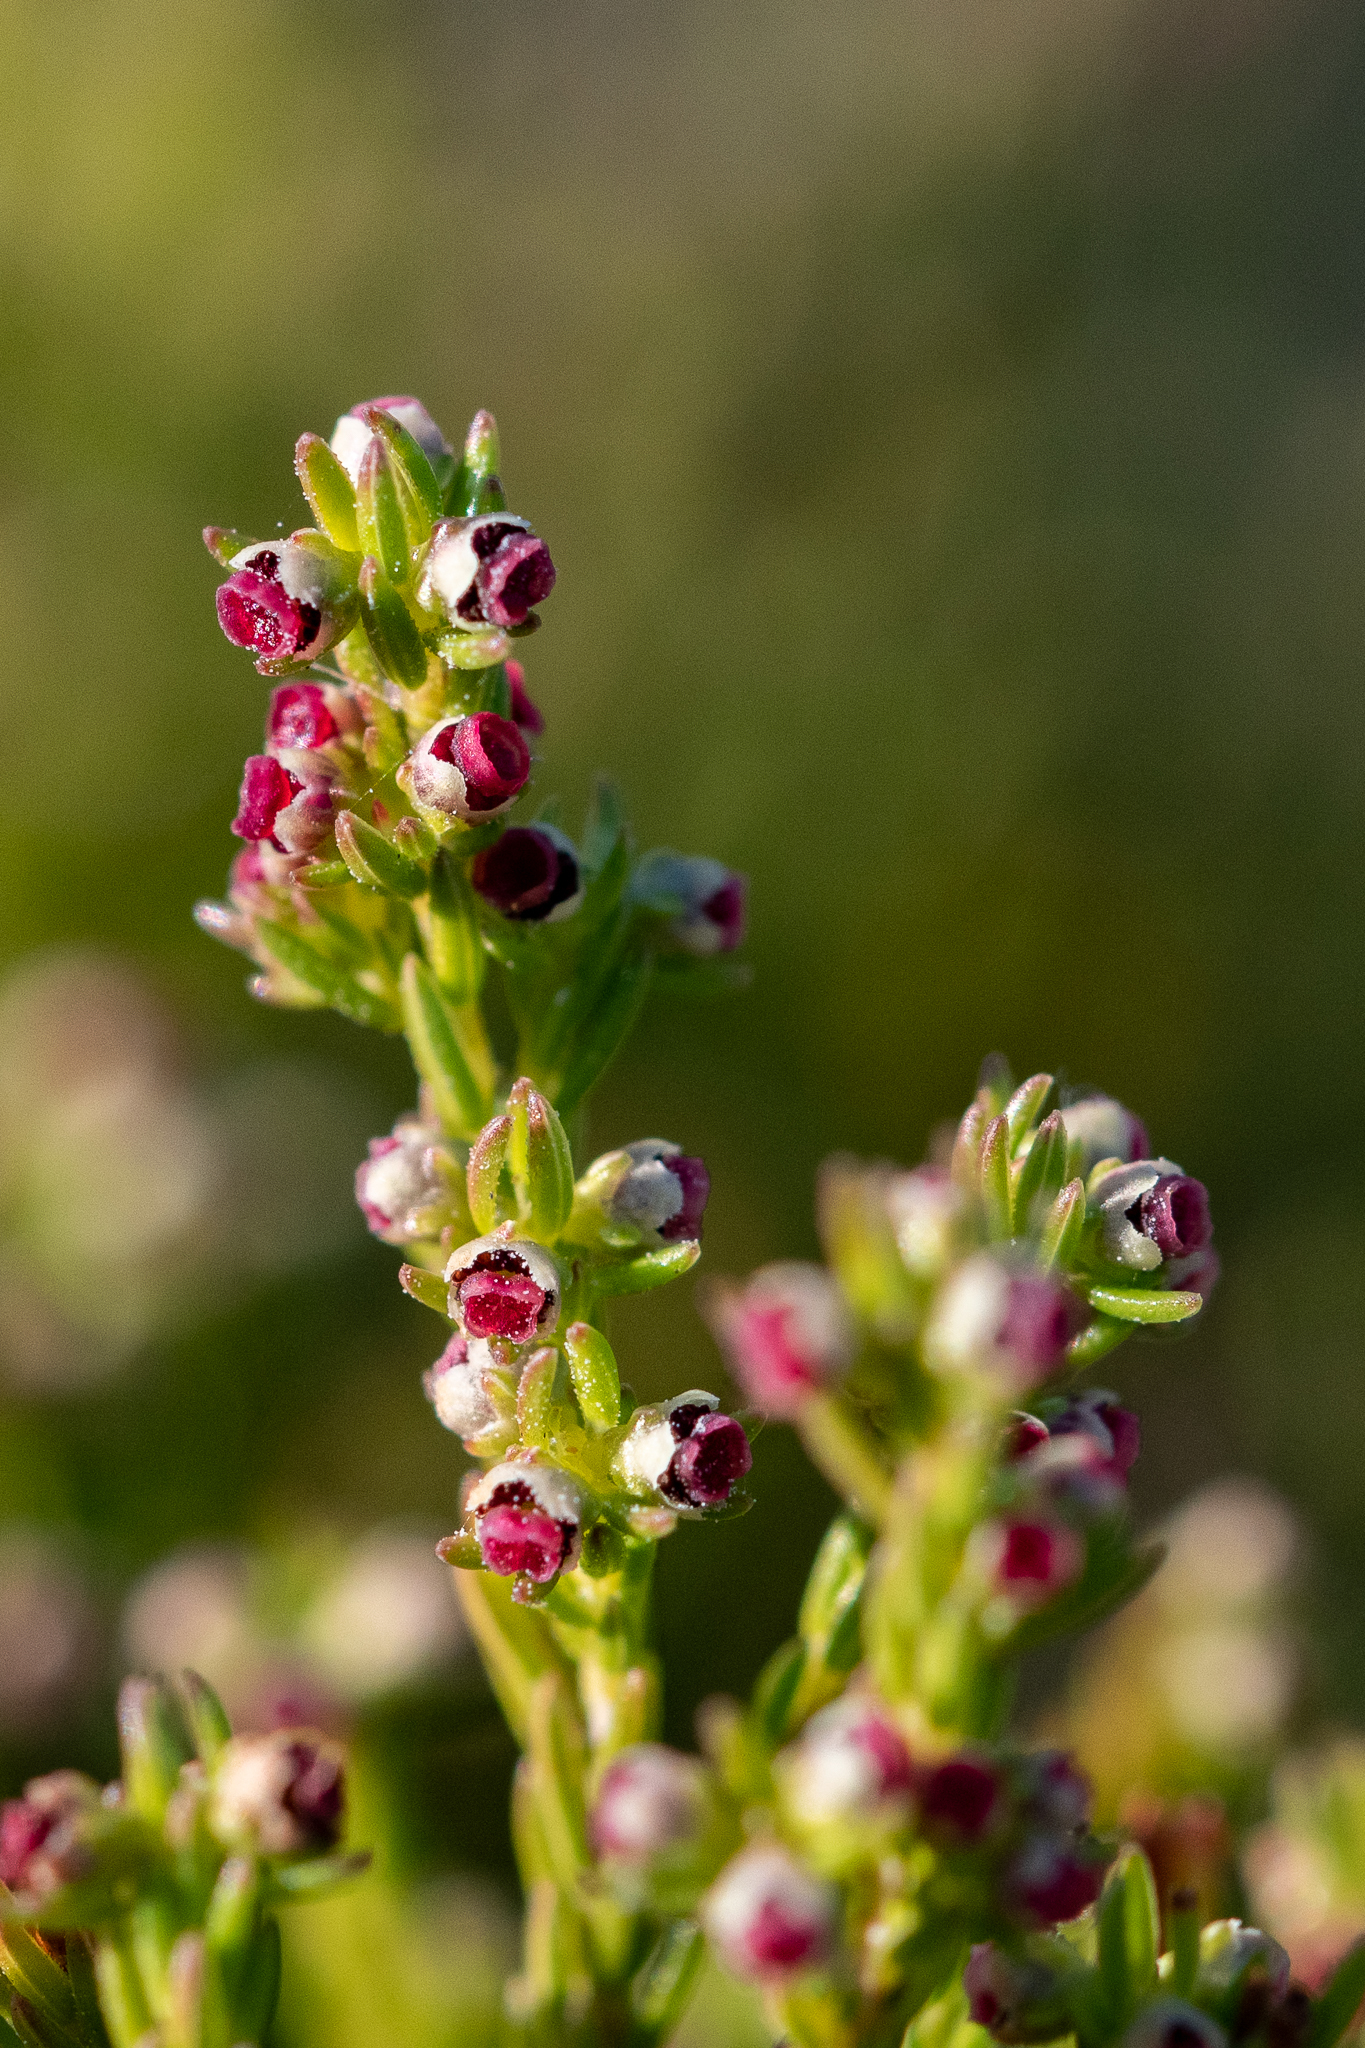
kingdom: Plantae
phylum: Tracheophyta
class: Magnoliopsida
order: Ericales
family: Ericaceae
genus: Erica
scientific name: Erica bredasiana
